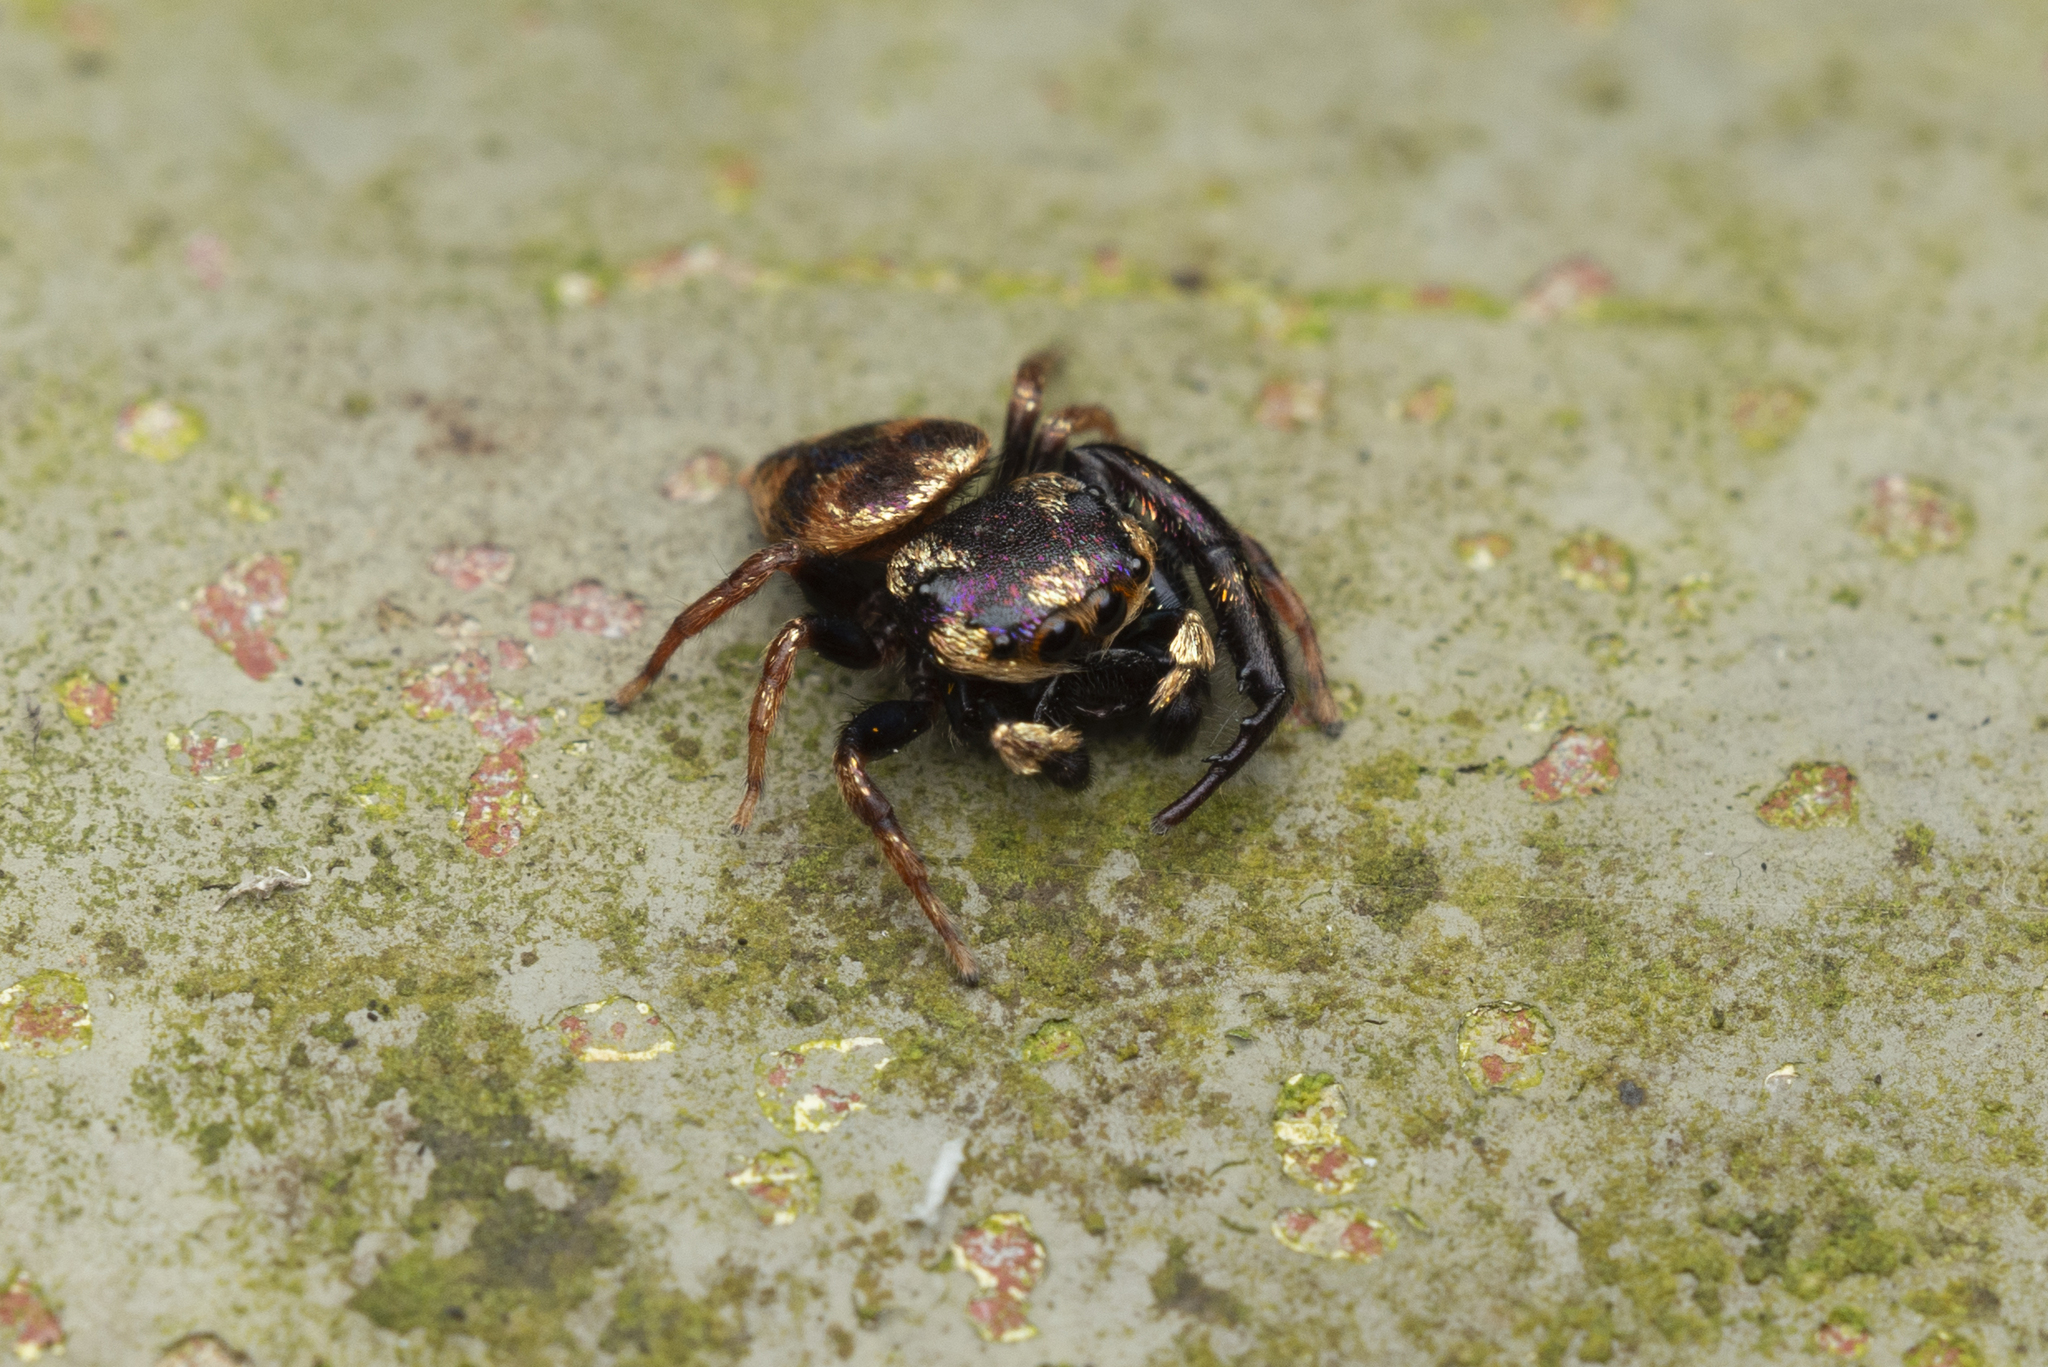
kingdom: Animalia
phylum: Arthropoda
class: Arachnida
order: Araneae
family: Salticidae
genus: Irura
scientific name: Irura bidenticulata
